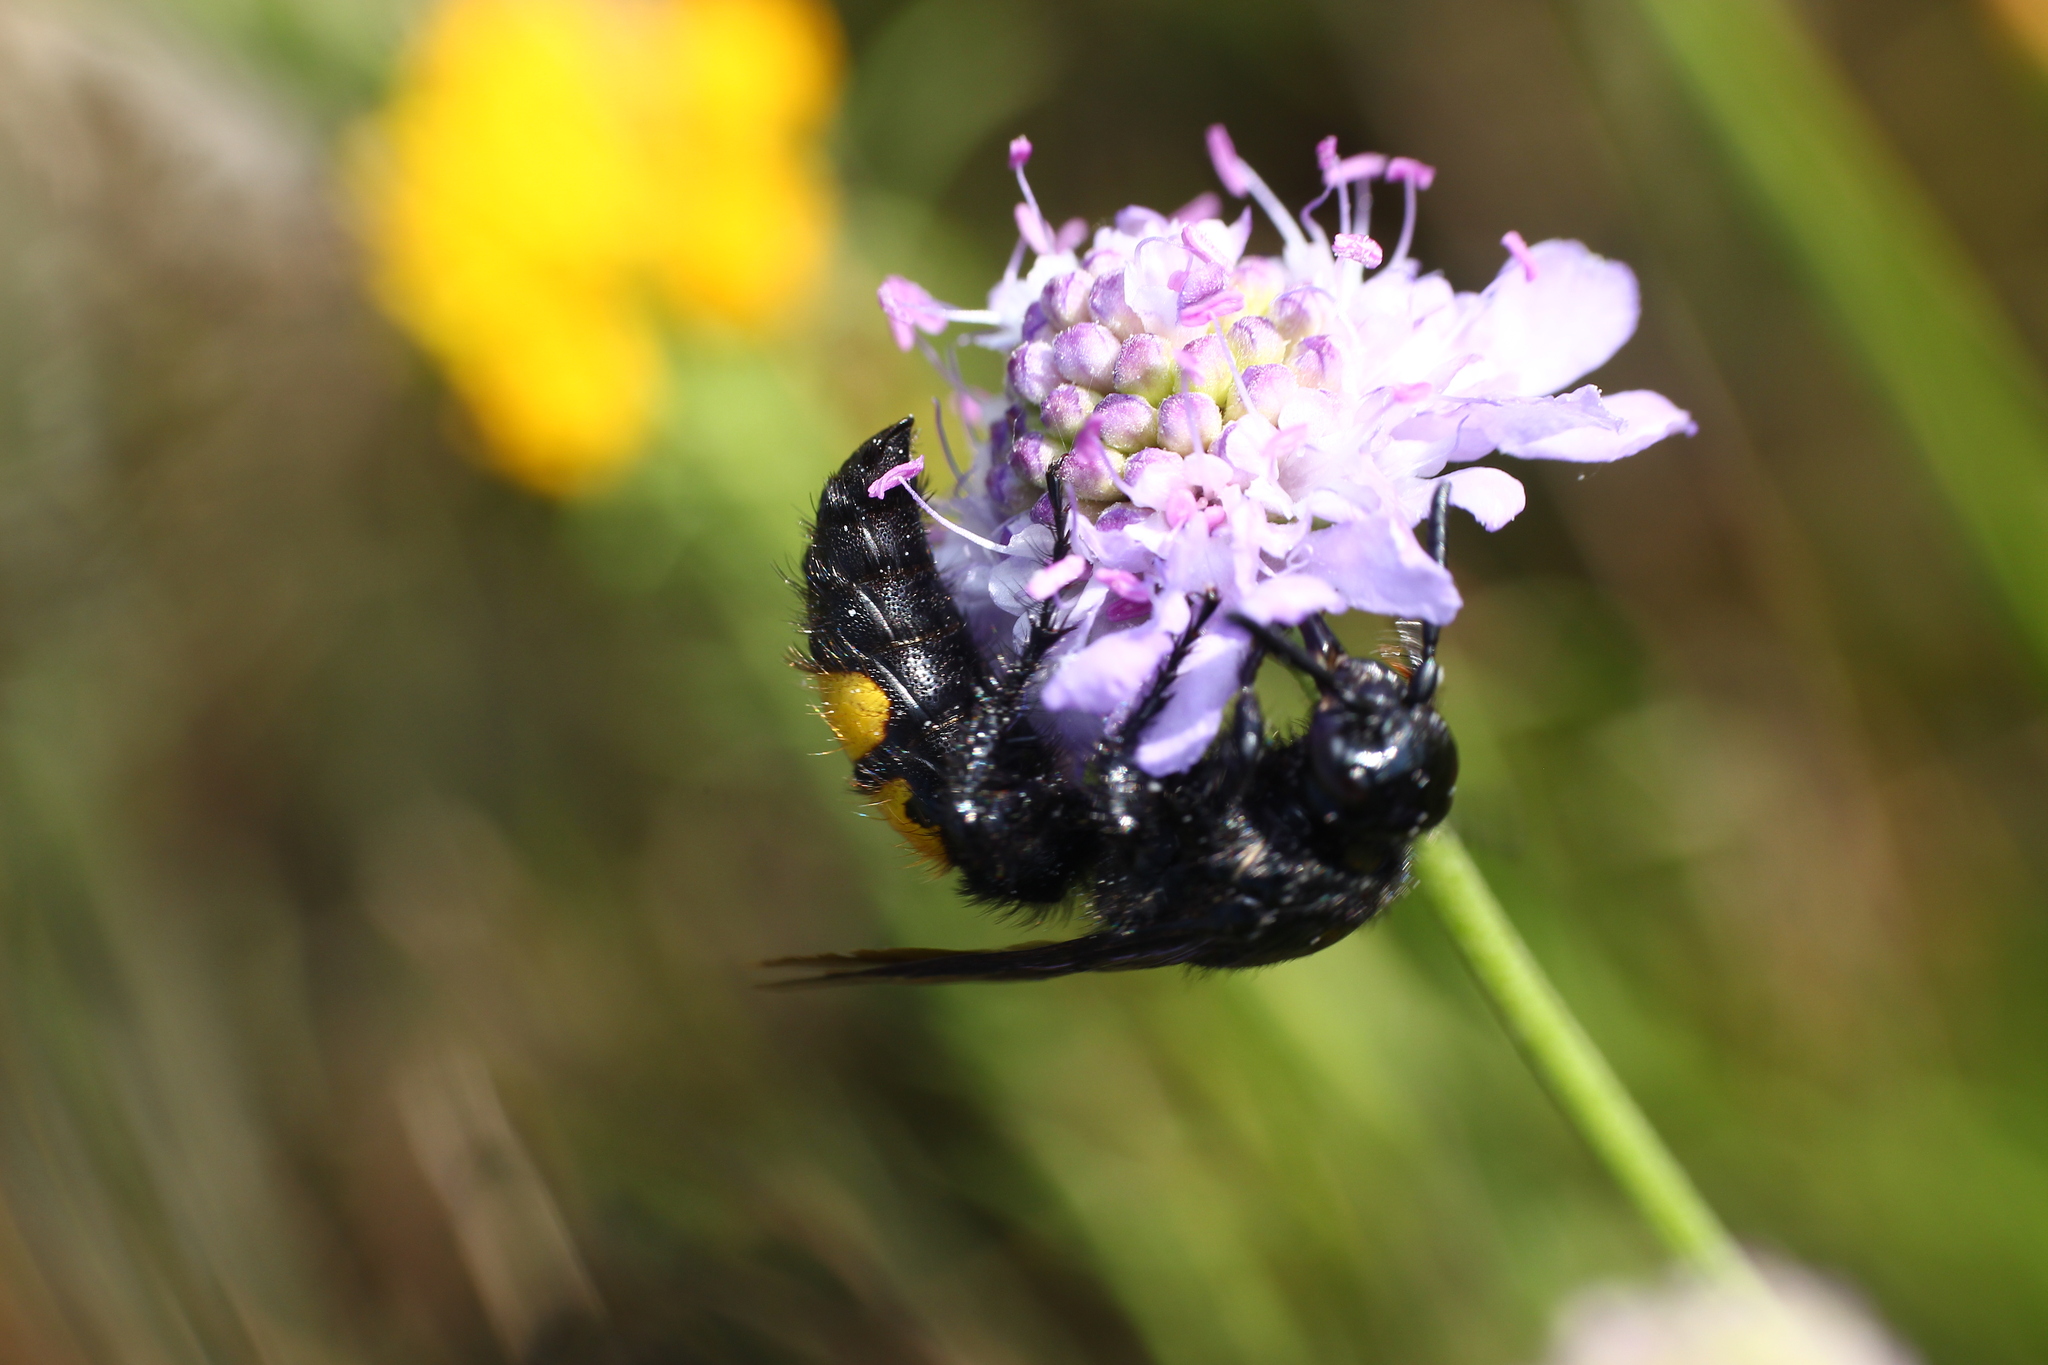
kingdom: Animalia
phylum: Arthropoda
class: Insecta
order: Hymenoptera
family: Scoliidae
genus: Scolia
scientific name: Scolia hirta
